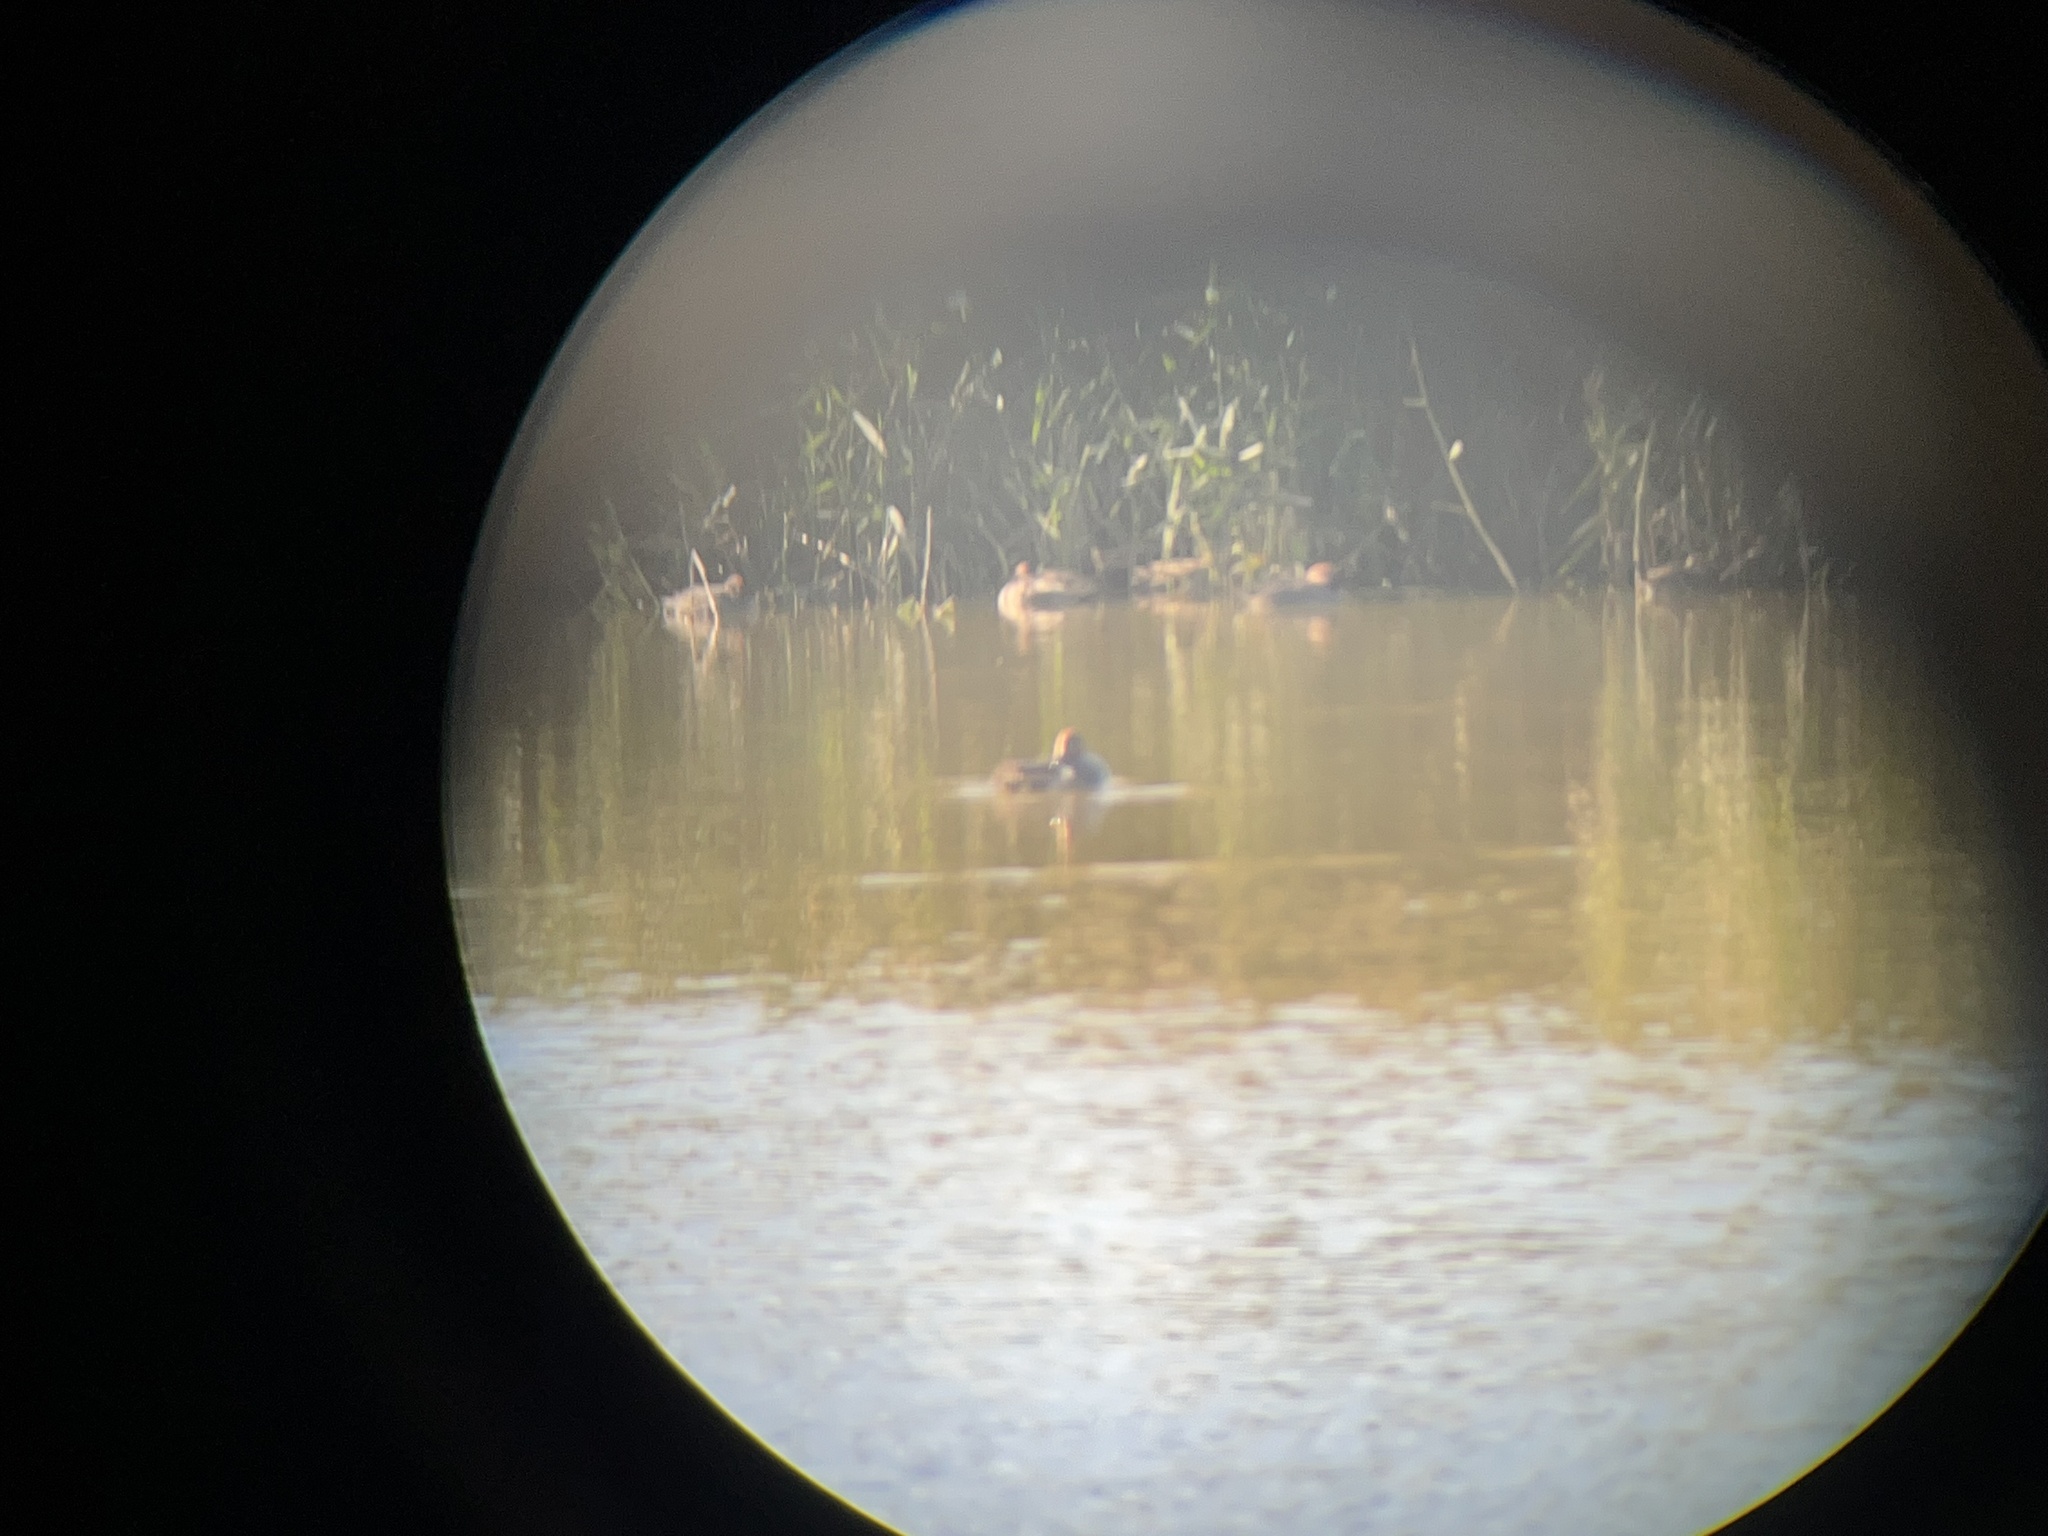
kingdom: Animalia
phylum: Chordata
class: Aves
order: Anseriformes
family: Anatidae
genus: Anas
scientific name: Anas crecca
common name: Eurasian teal
